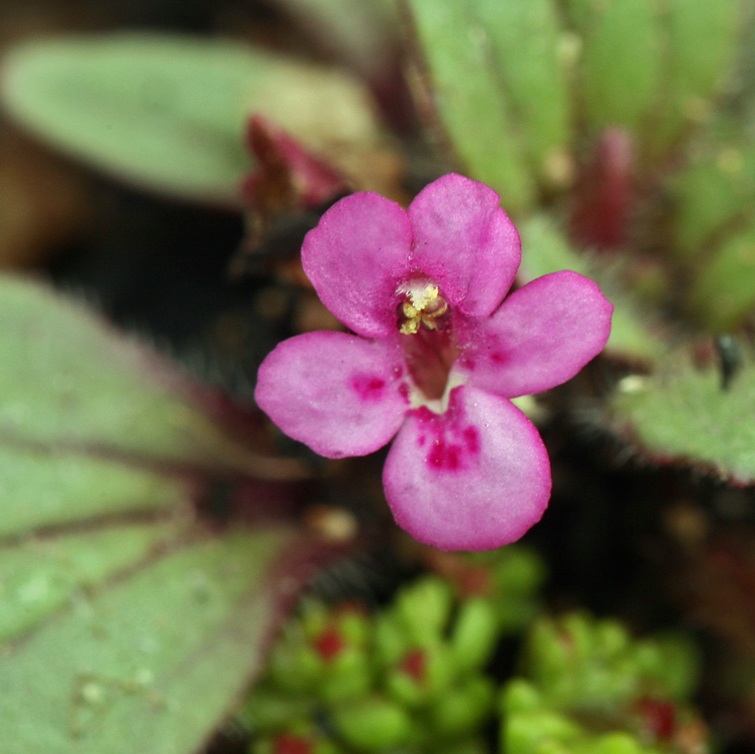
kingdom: Plantae
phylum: Tracheophyta
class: Magnoliopsida
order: Lamiales
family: Phrymaceae
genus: Diplacus
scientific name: Diplacus congdonii
